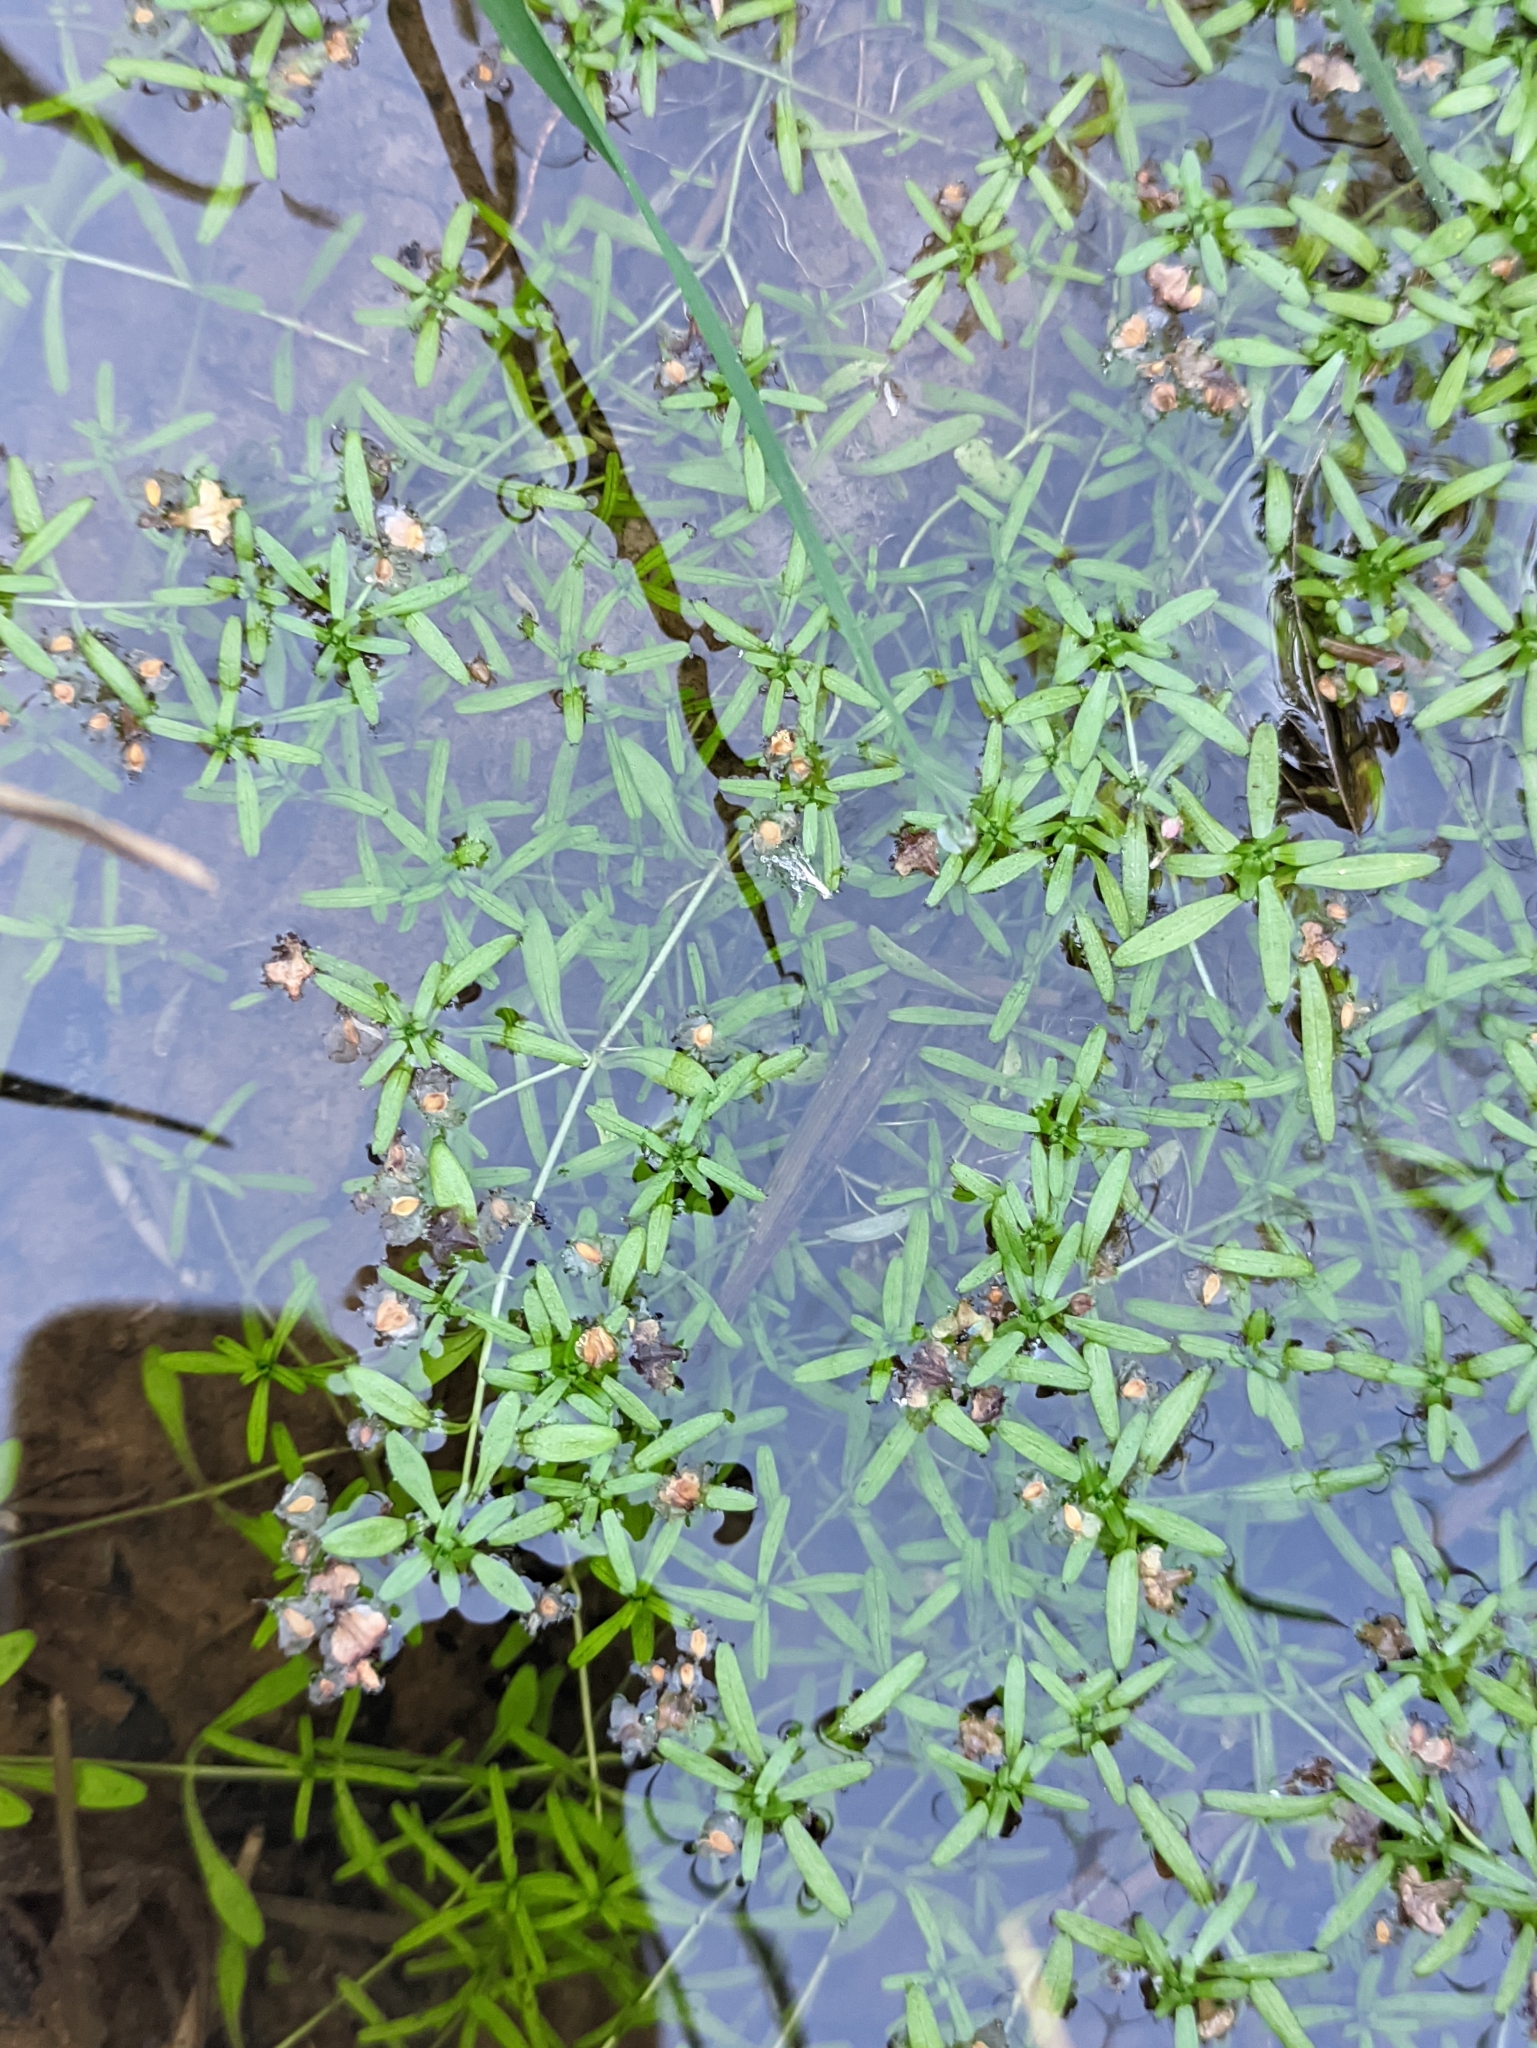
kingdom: Plantae
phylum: Tracheophyta
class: Magnoliopsida
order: Lamiales
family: Plantaginaceae
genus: Callitriche
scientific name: Callitriche
